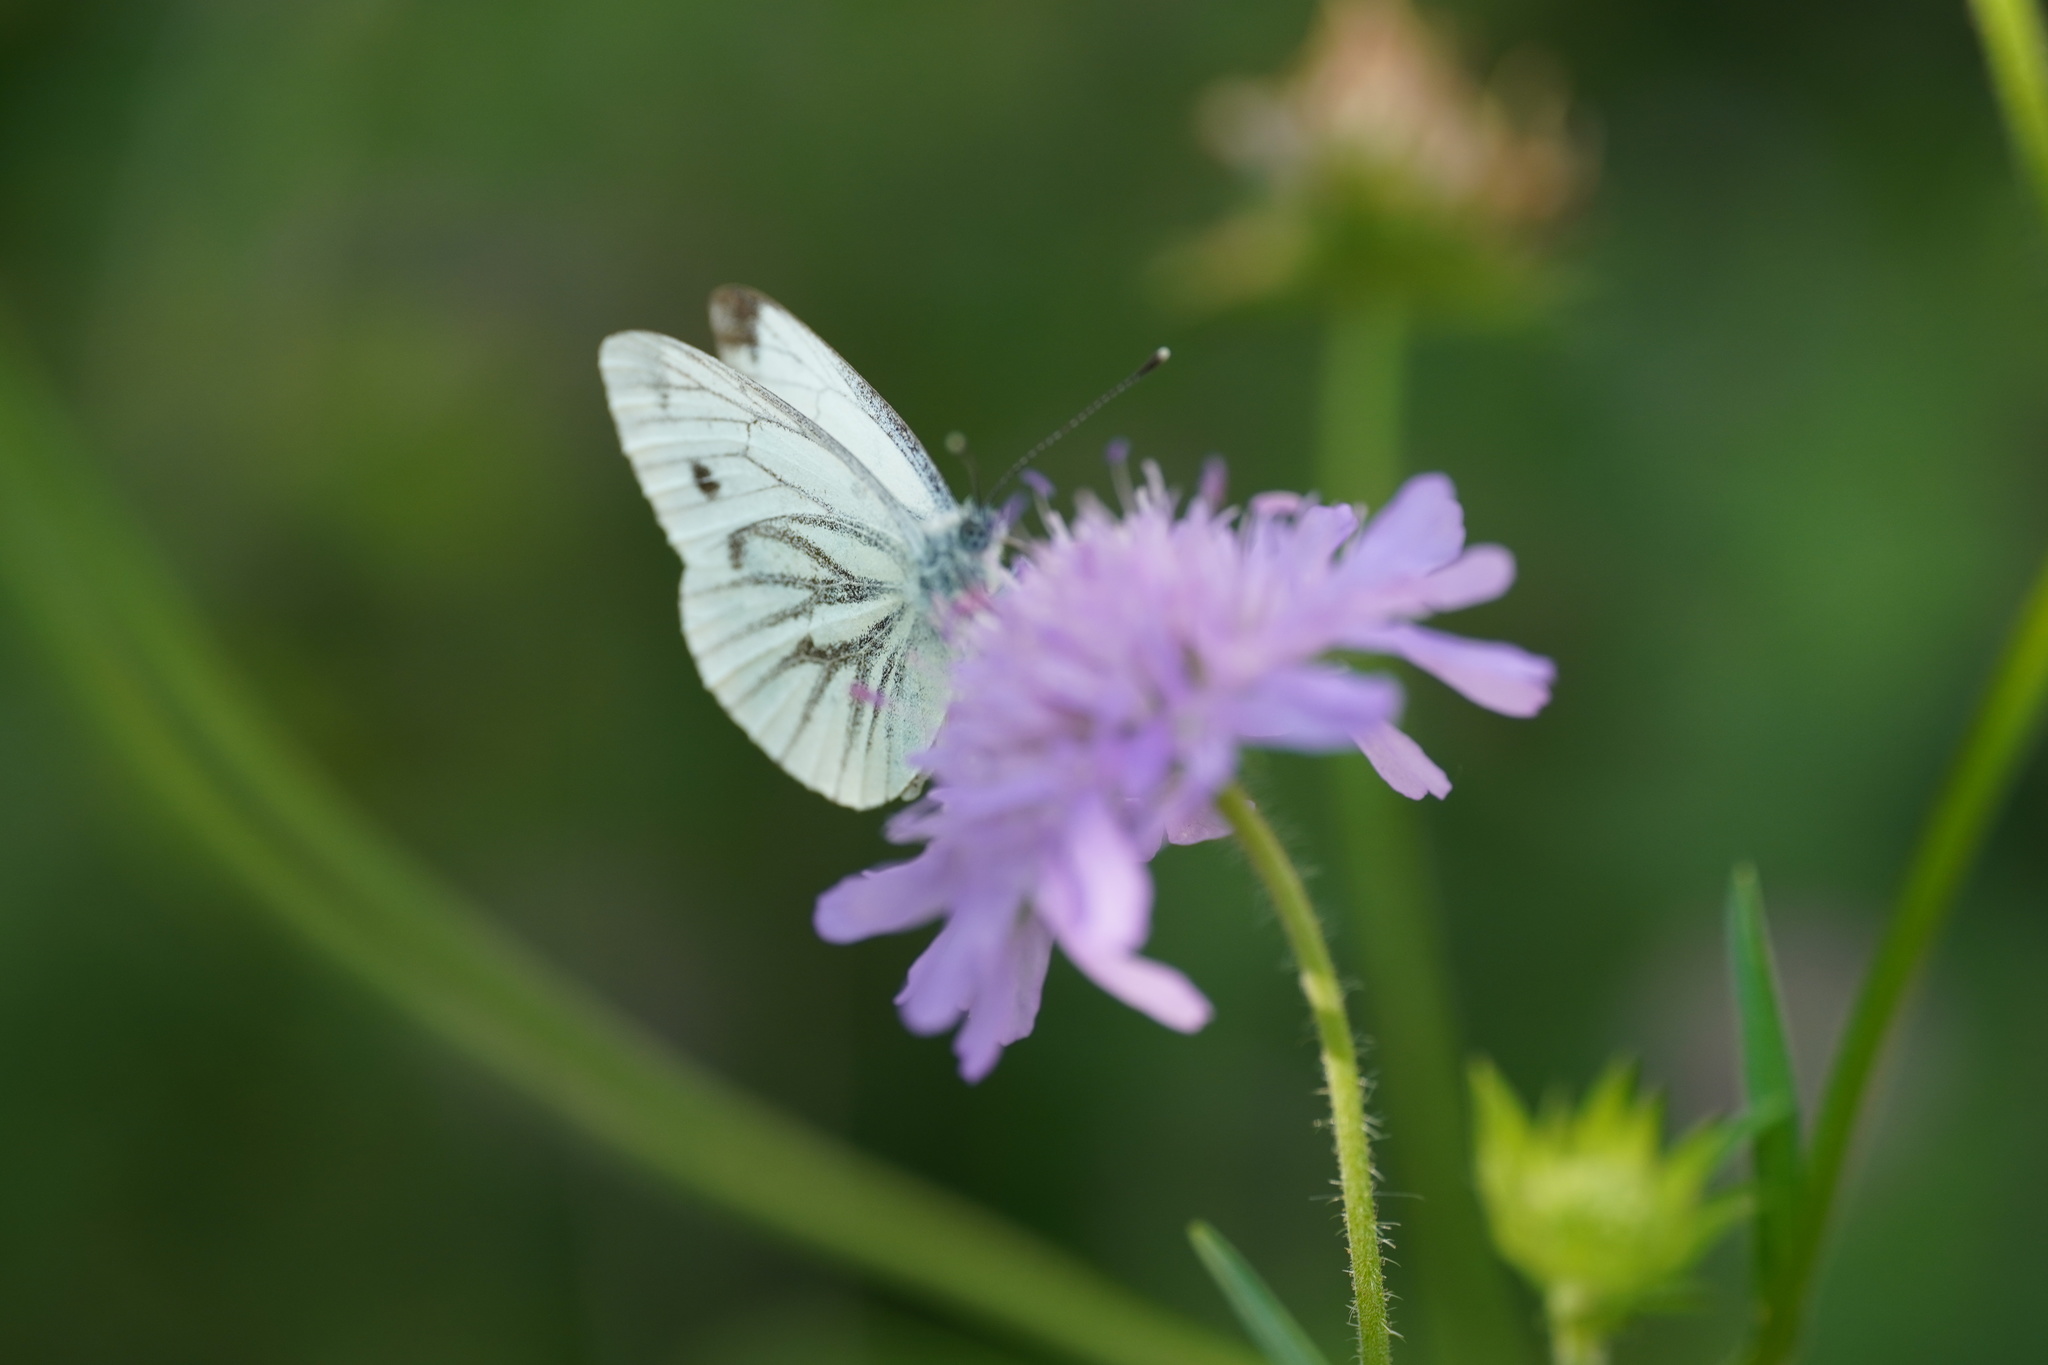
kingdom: Animalia
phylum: Arthropoda
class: Insecta
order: Lepidoptera
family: Pieridae
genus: Pieris
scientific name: Pieris napi
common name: Green-veined white
